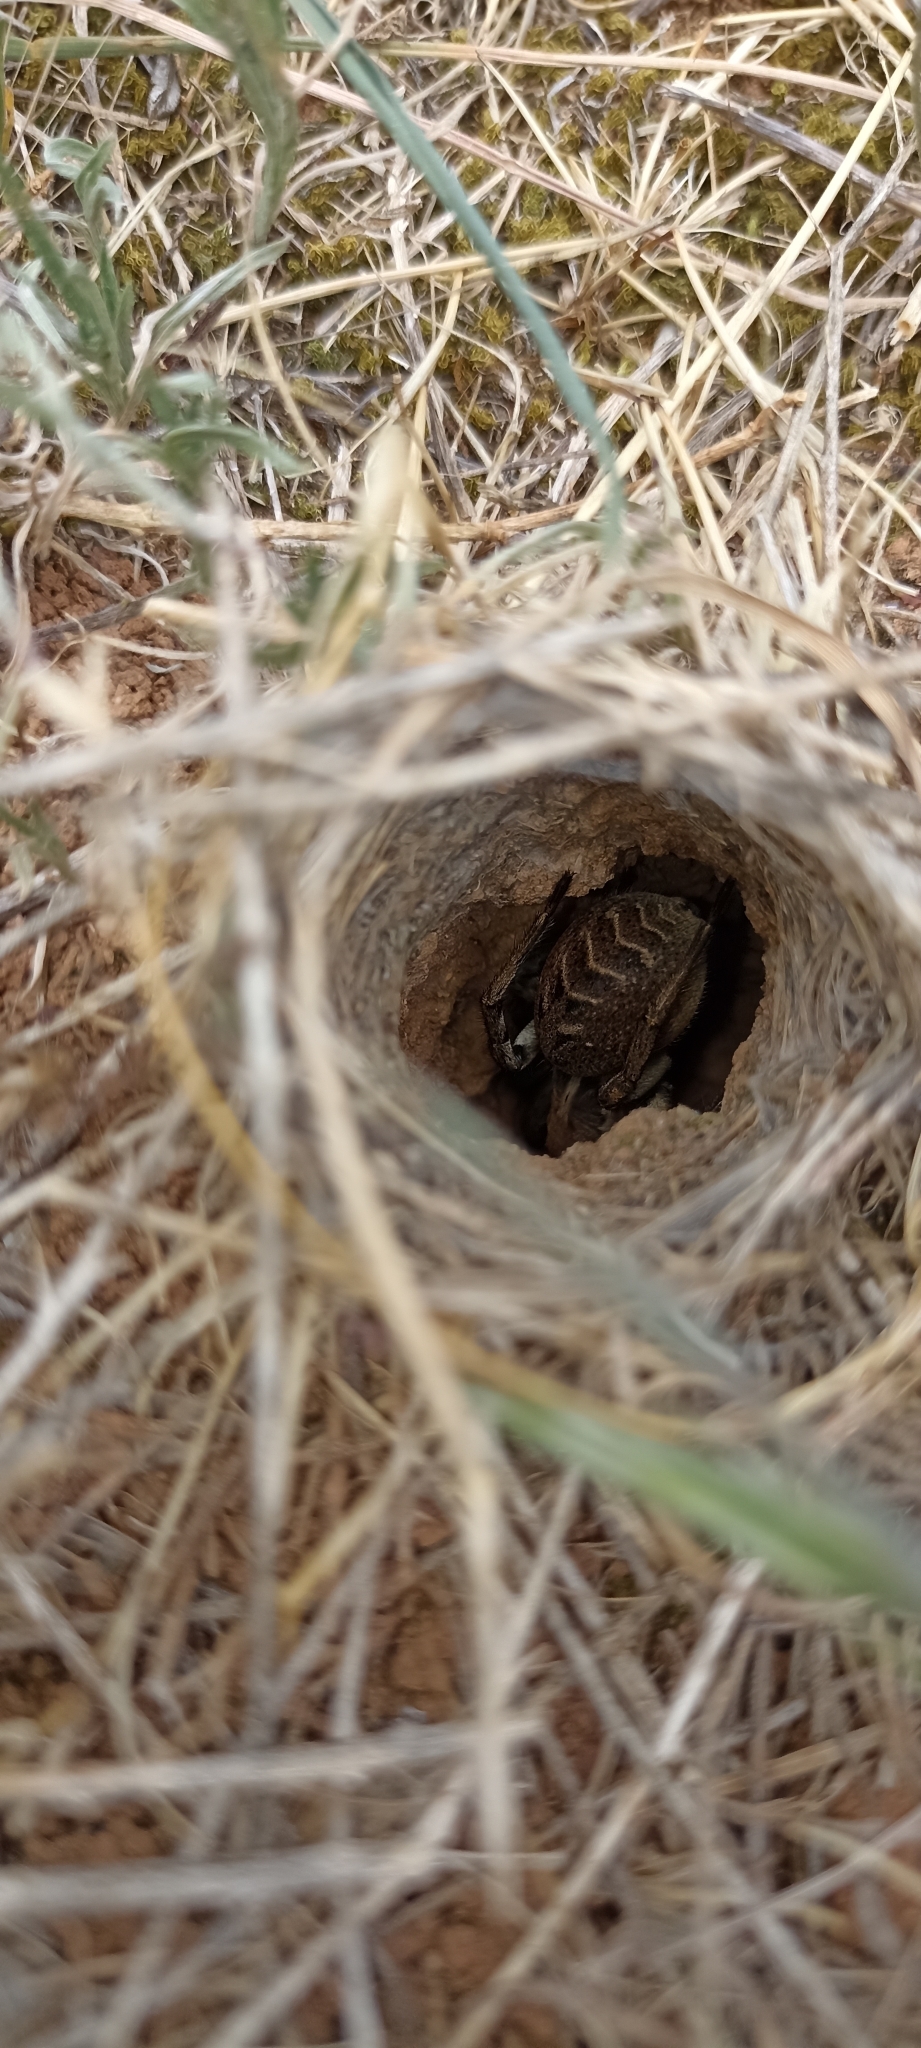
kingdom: Animalia
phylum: Arthropoda
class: Arachnida
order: Araneae
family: Lycosidae
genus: Lycosa
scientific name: Lycosa tarantula
